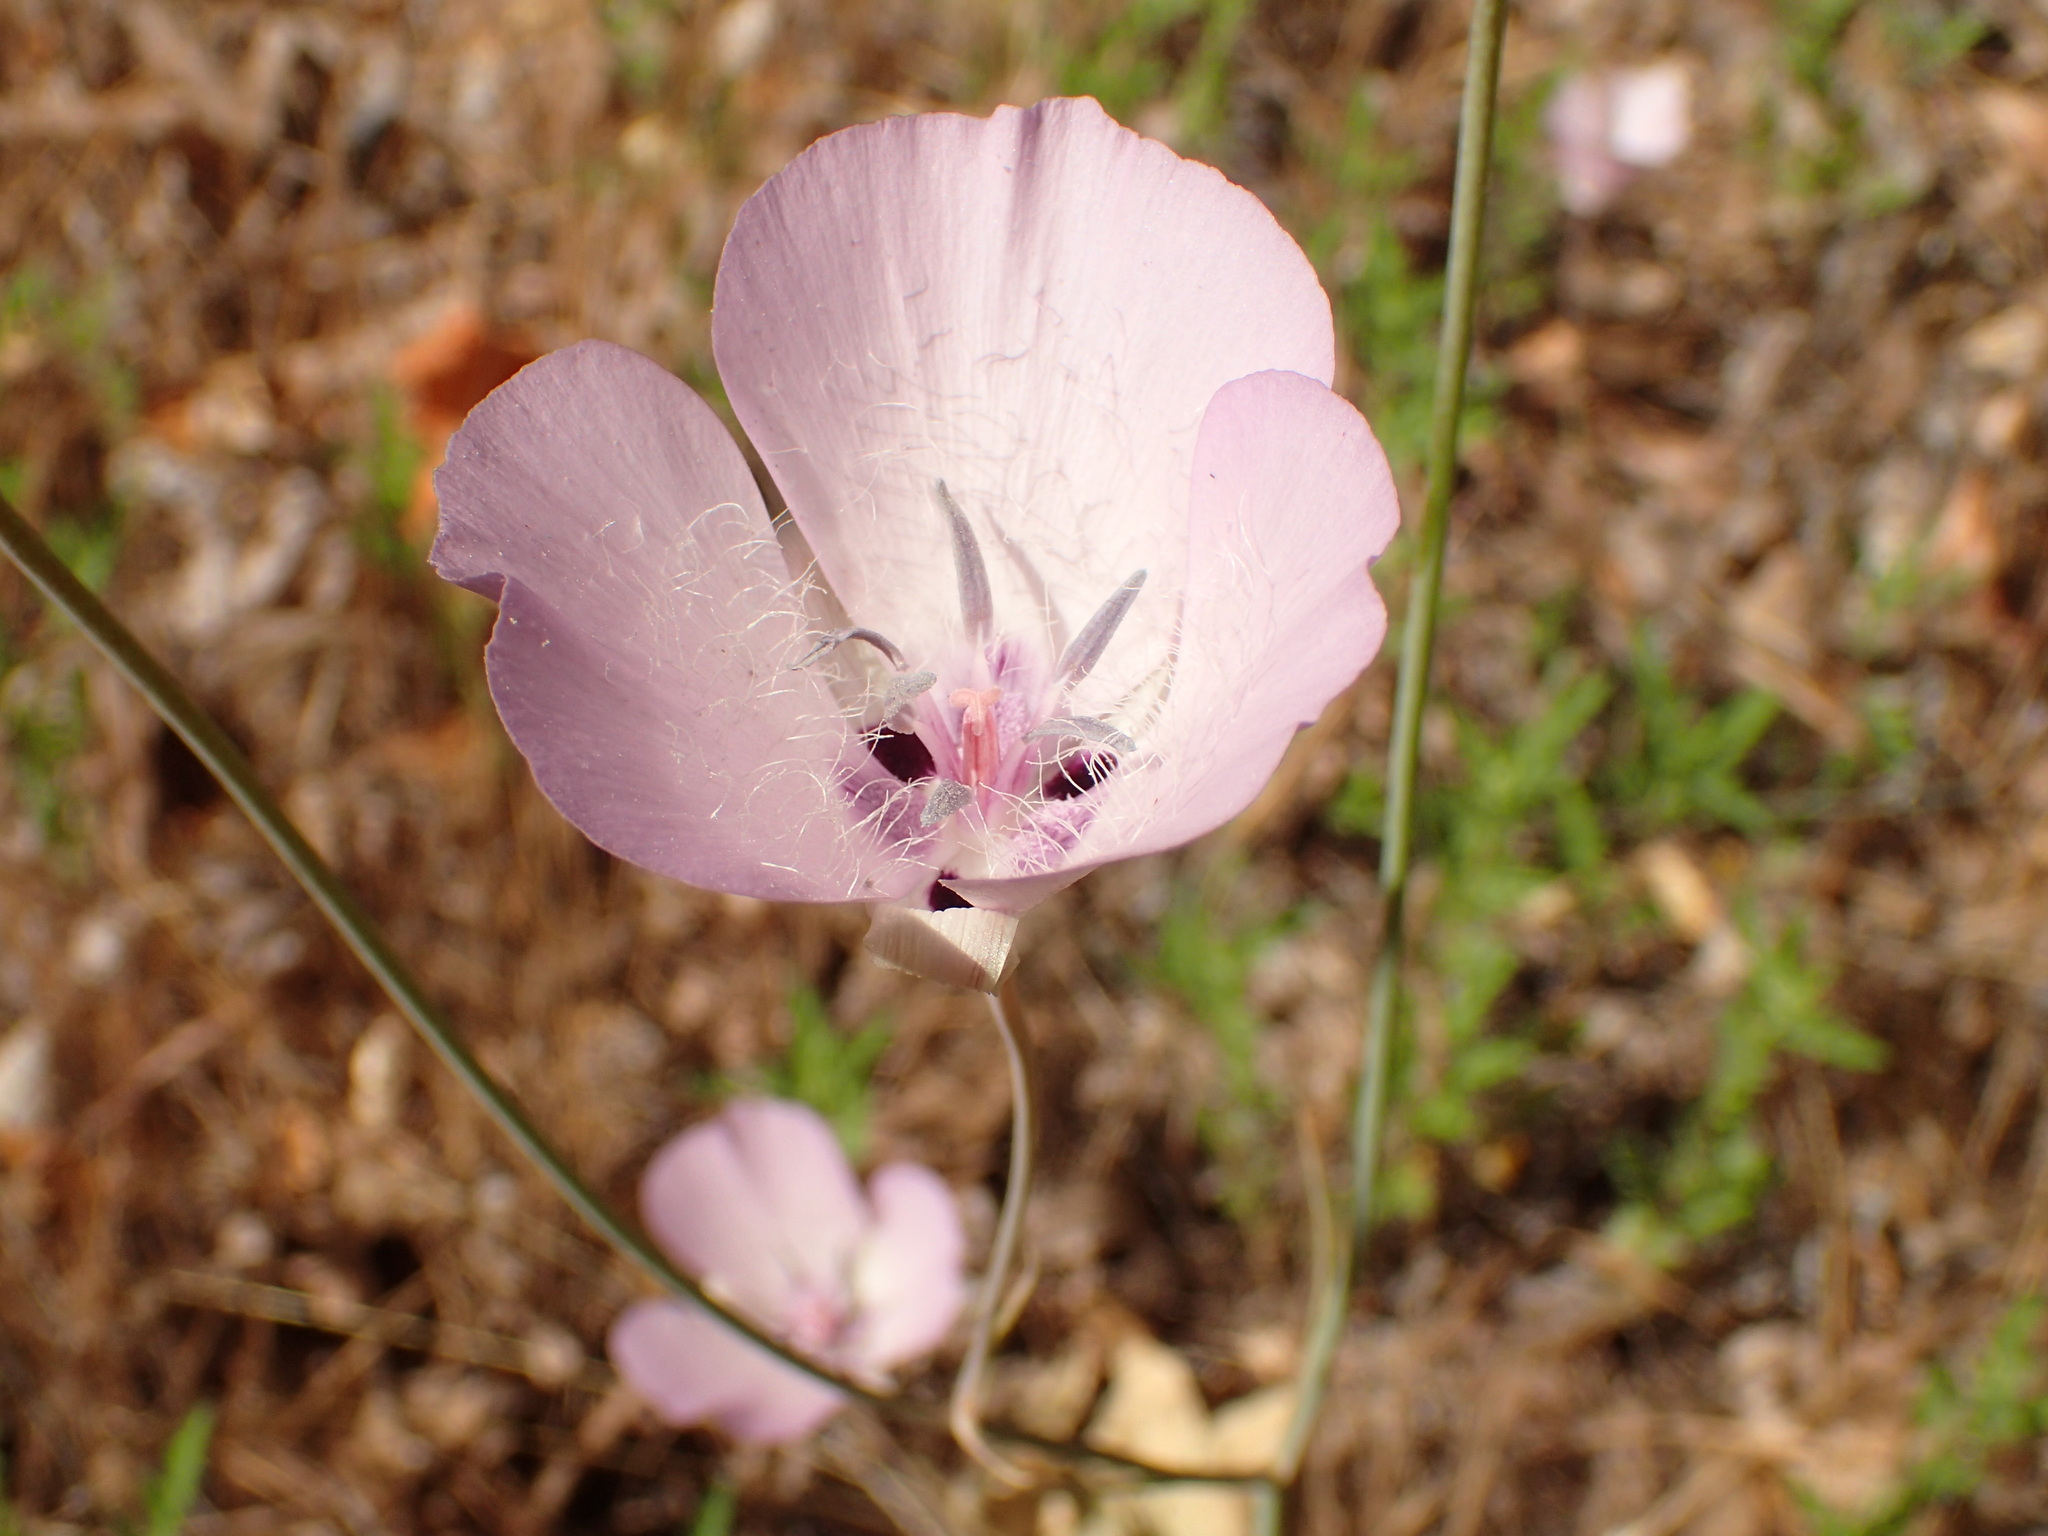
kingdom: Plantae
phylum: Tracheophyta
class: Liliopsida
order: Liliales
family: Liliaceae
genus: Calochortus
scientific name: Calochortus splendens
